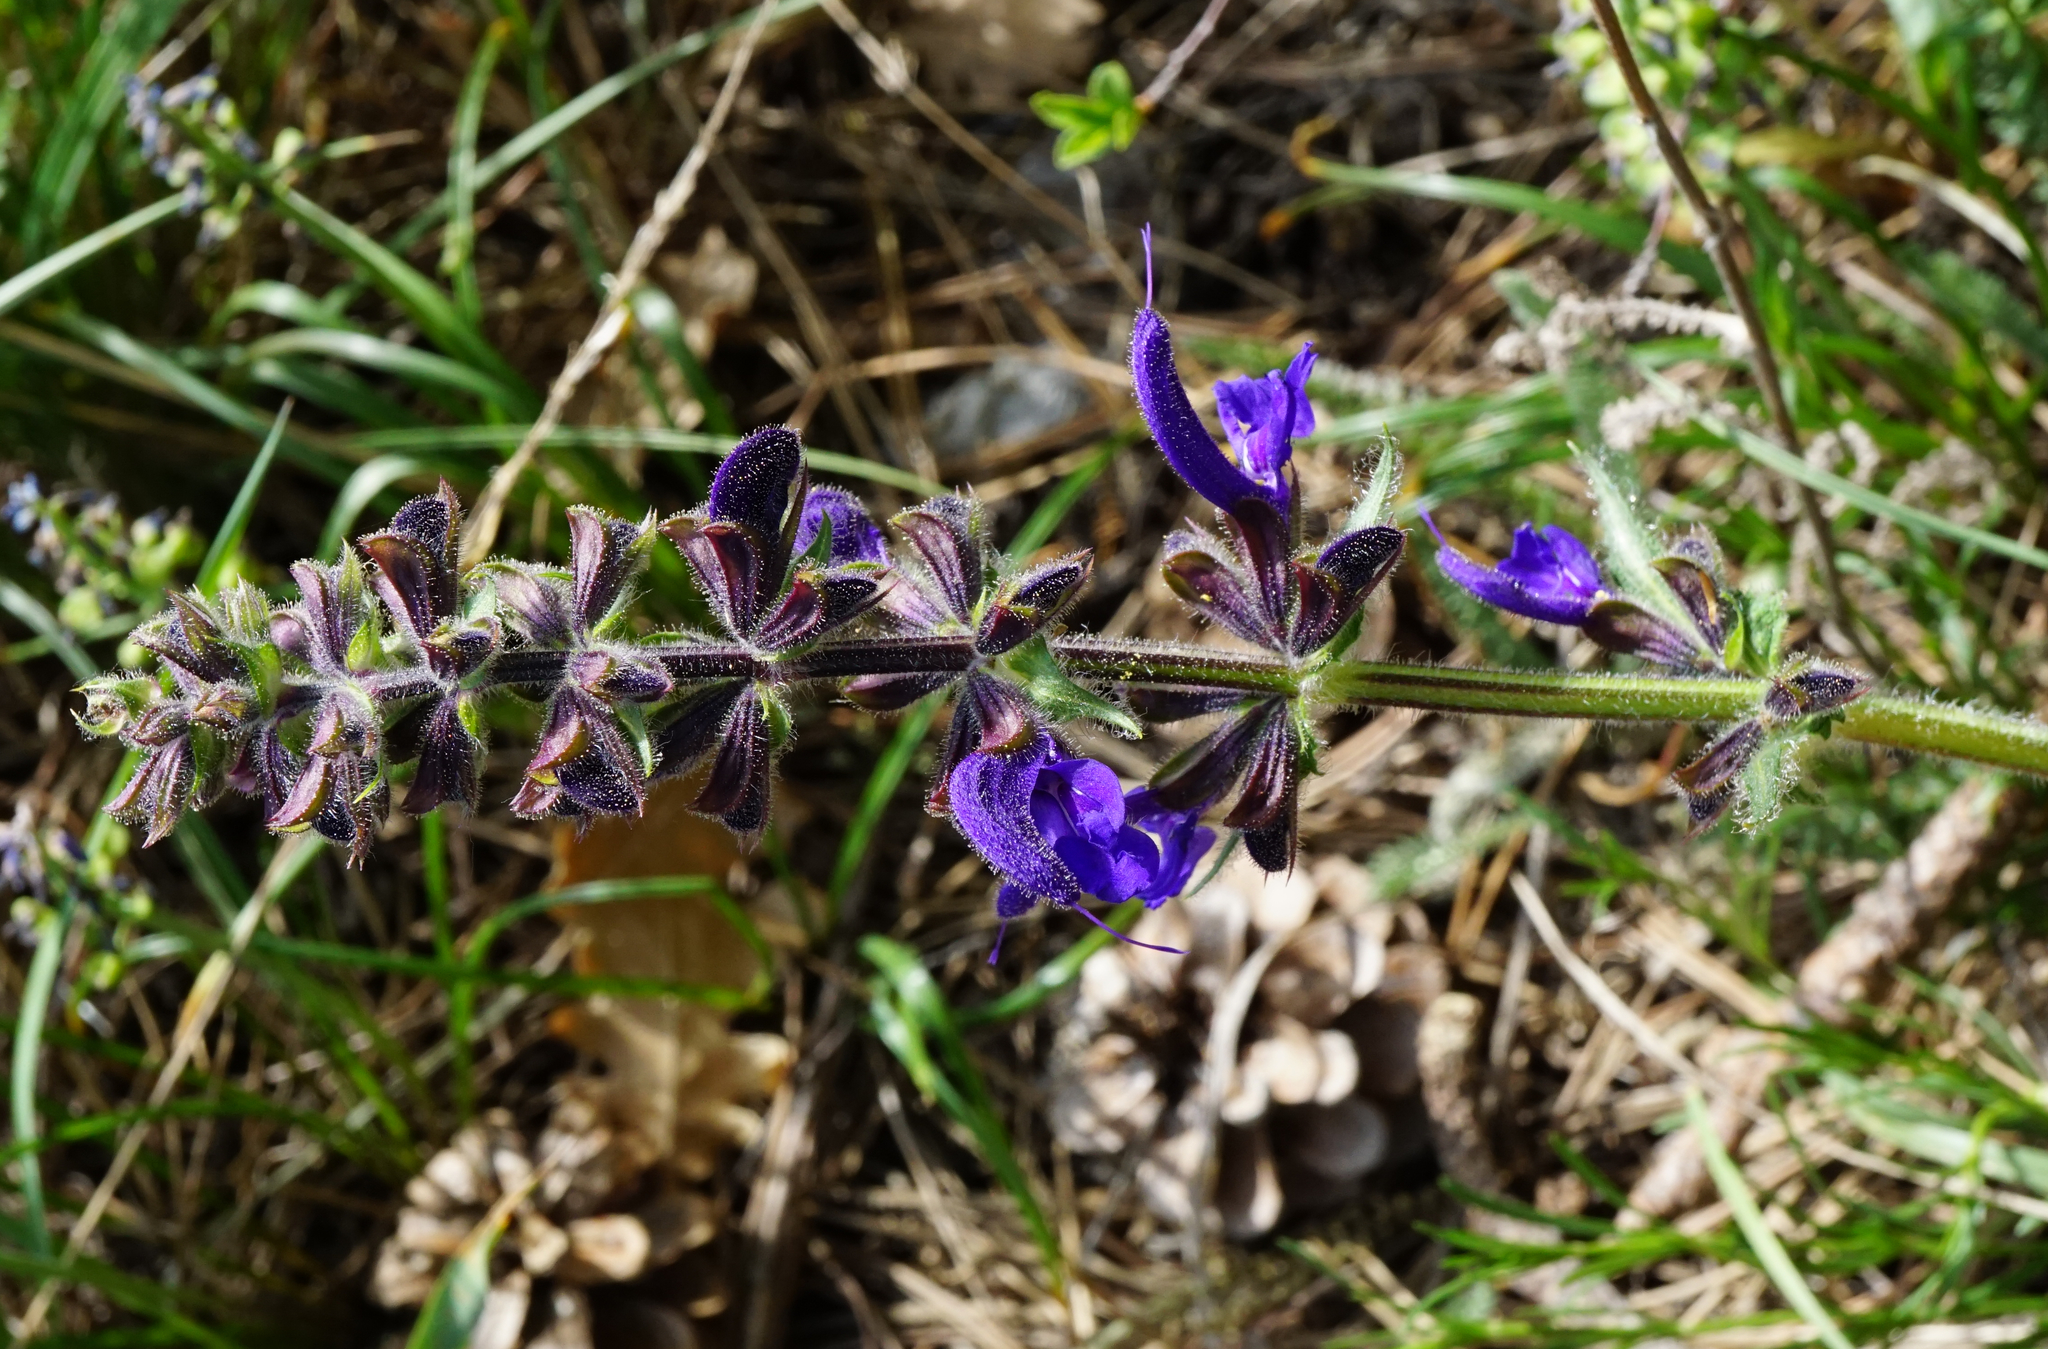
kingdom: Plantae
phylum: Tracheophyta
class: Magnoliopsida
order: Lamiales
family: Lamiaceae
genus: Salvia
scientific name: Salvia pratensis
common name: Meadow sage
